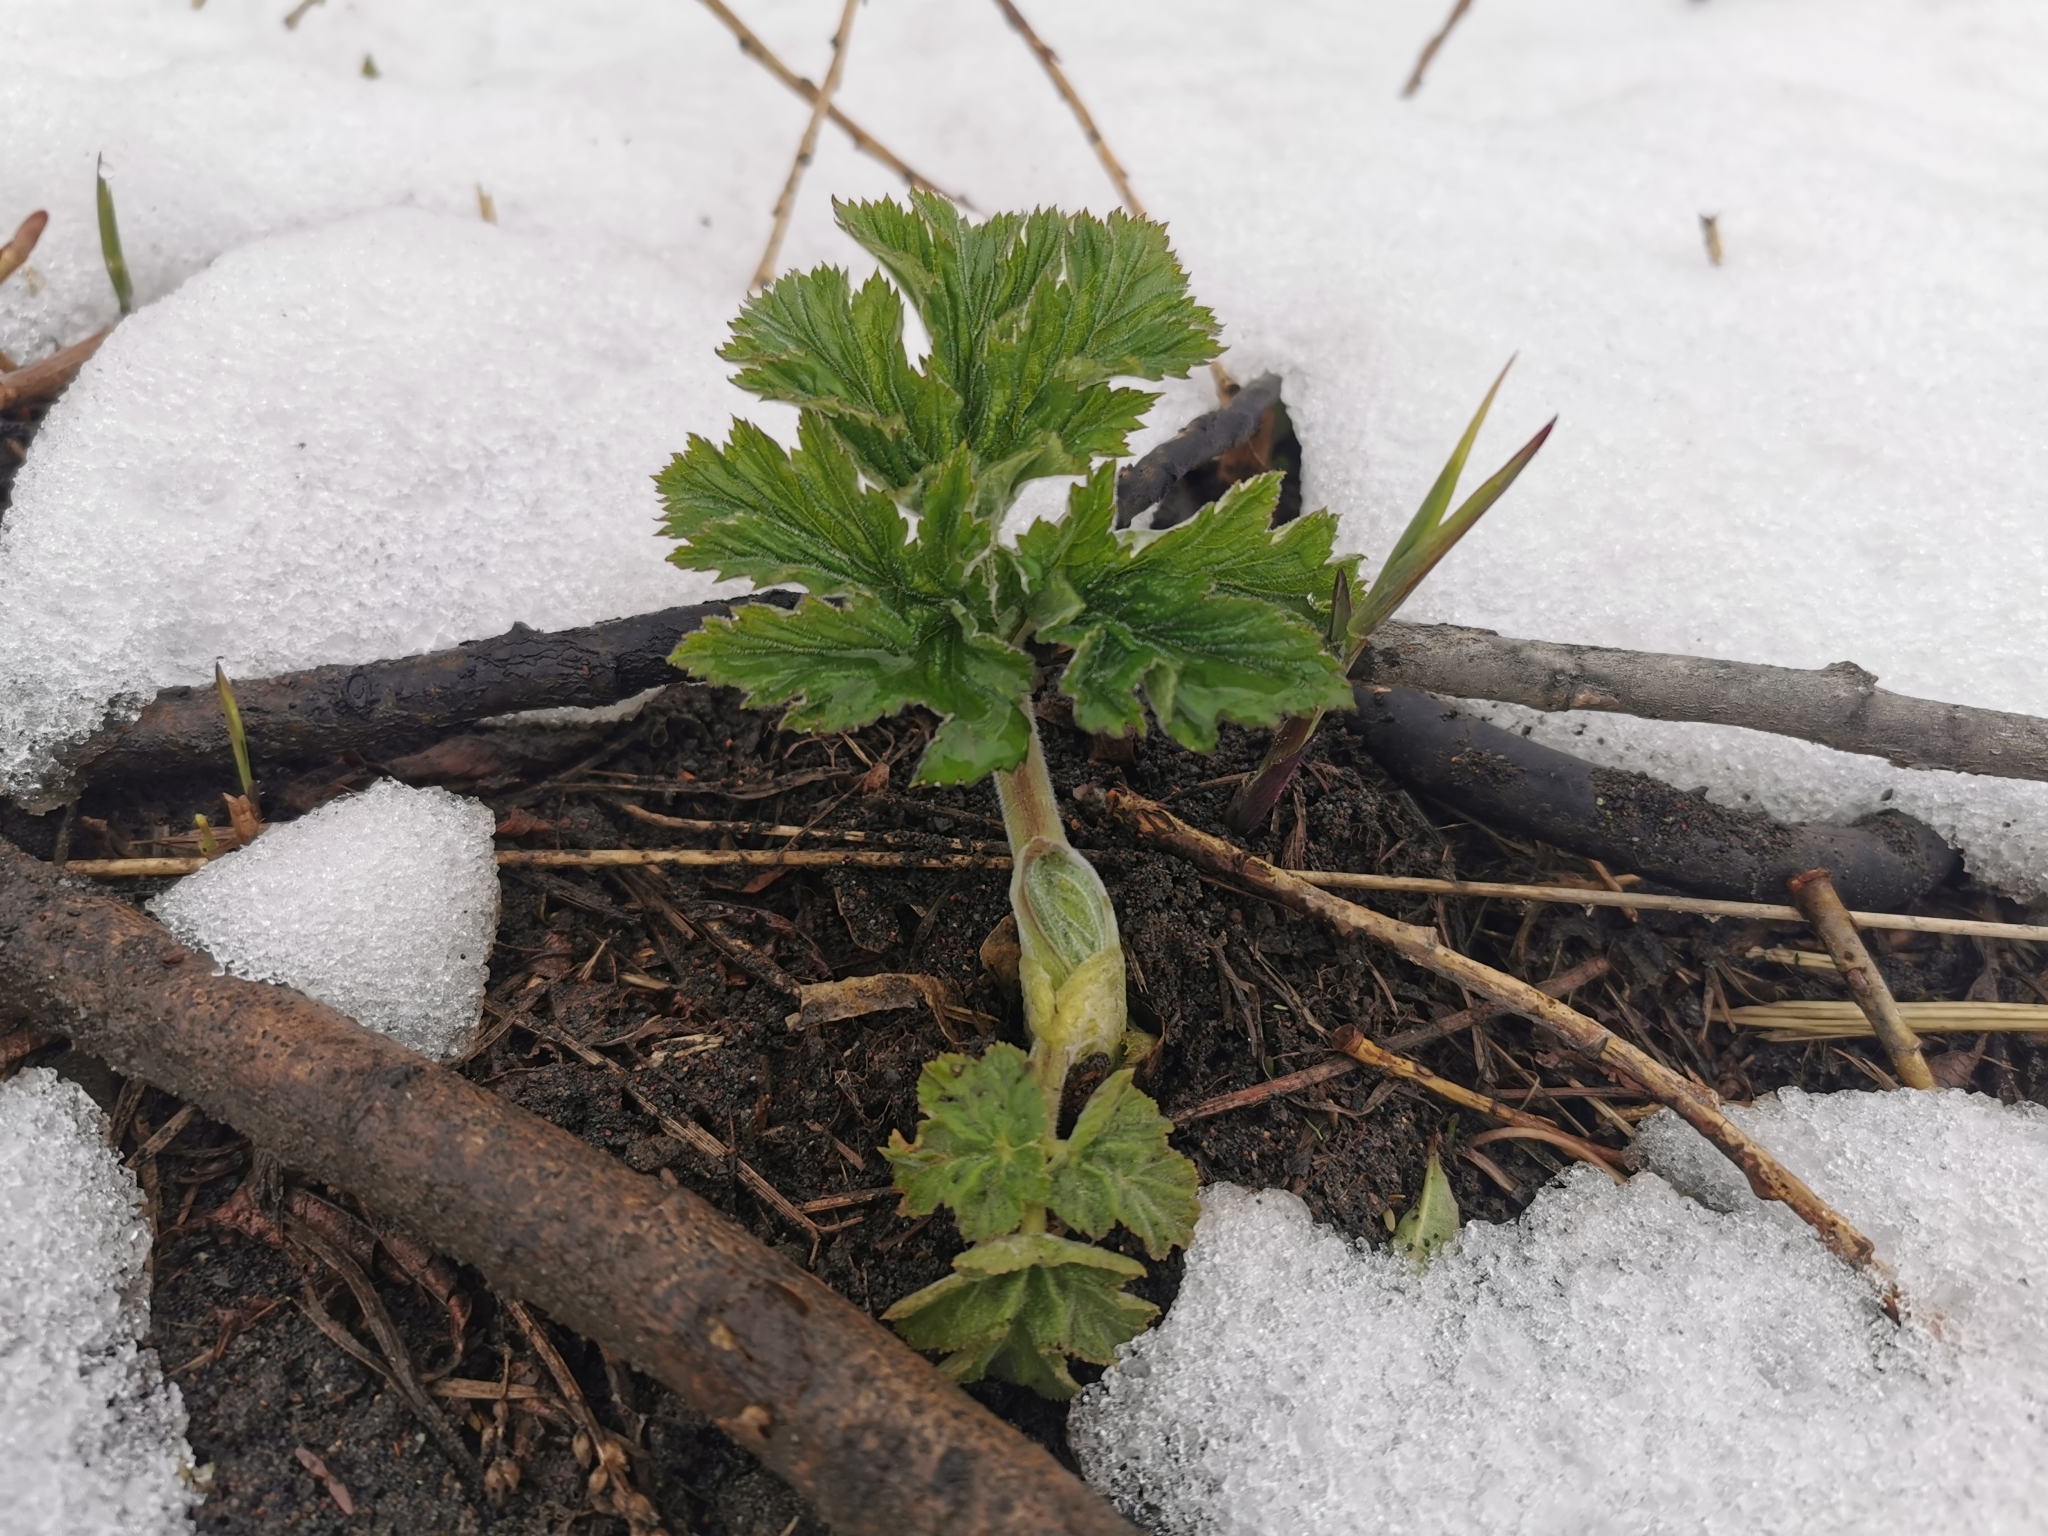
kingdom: Plantae
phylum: Tracheophyta
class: Magnoliopsida
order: Apiales
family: Apiaceae
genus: Heracleum
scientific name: Heracleum maximum
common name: American cow parsnip
